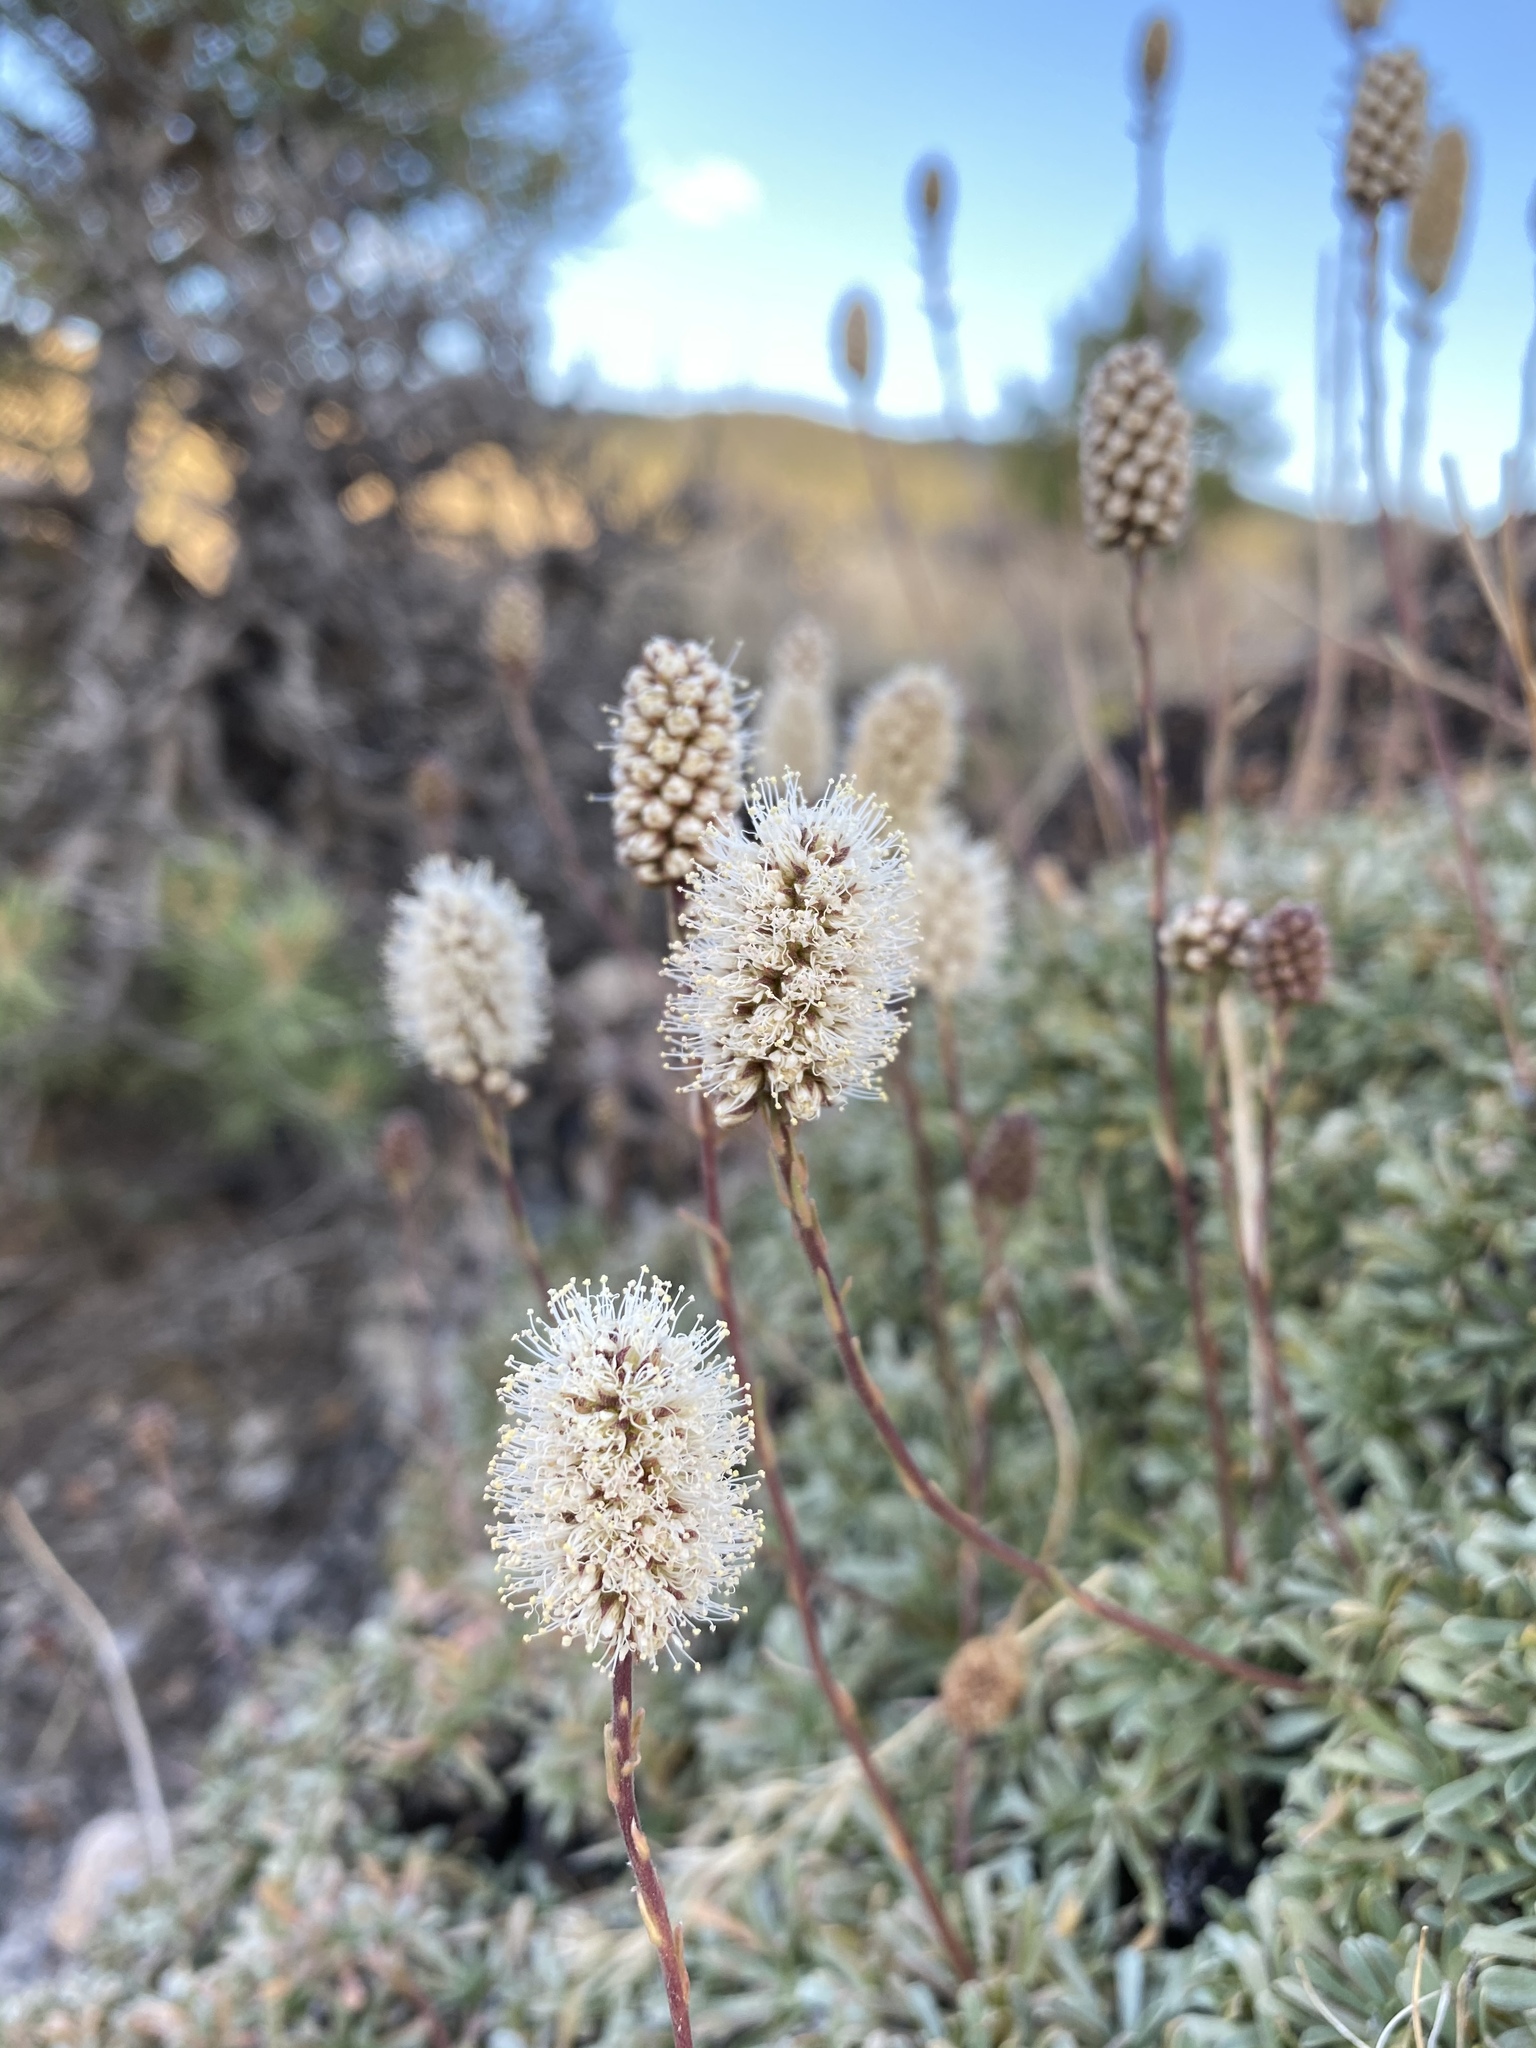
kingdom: Plantae
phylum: Tracheophyta
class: Magnoliopsida
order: Rosales
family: Rosaceae
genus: Petrophytum
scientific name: Petrophytum caespitosum
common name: Mat rockspirea
